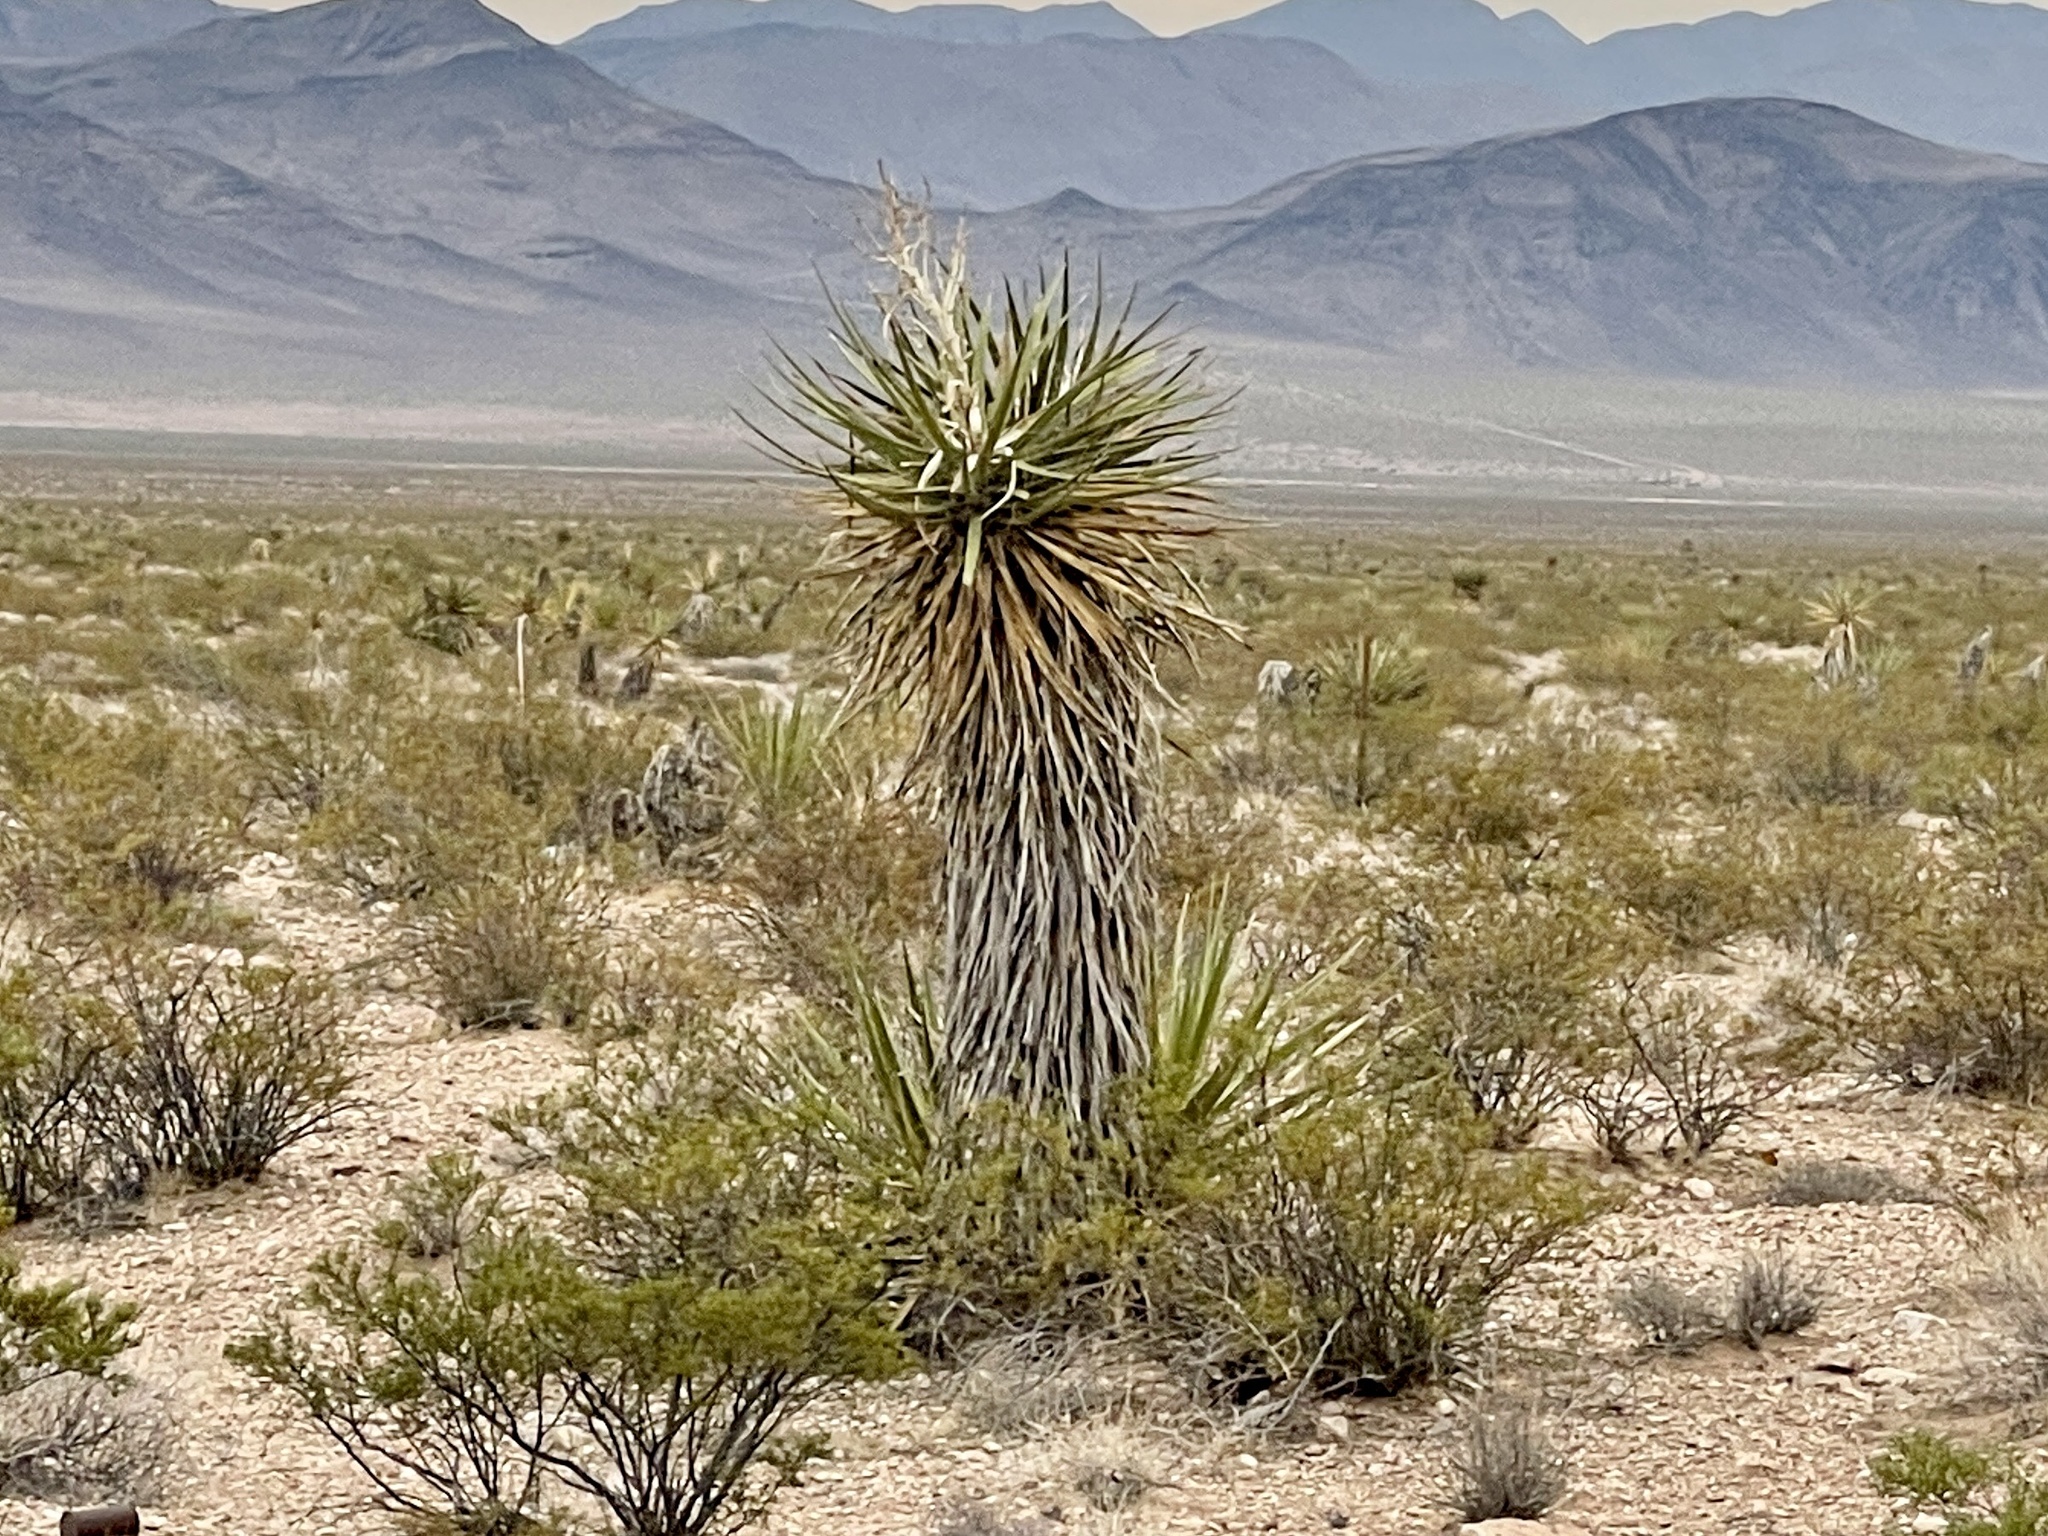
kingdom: Plantae
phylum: Tracheophyta
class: Liliopsida
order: Asparagales
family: Asparagaceae
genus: Yucca
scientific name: Yucca schidigera
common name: Mojave yucca
